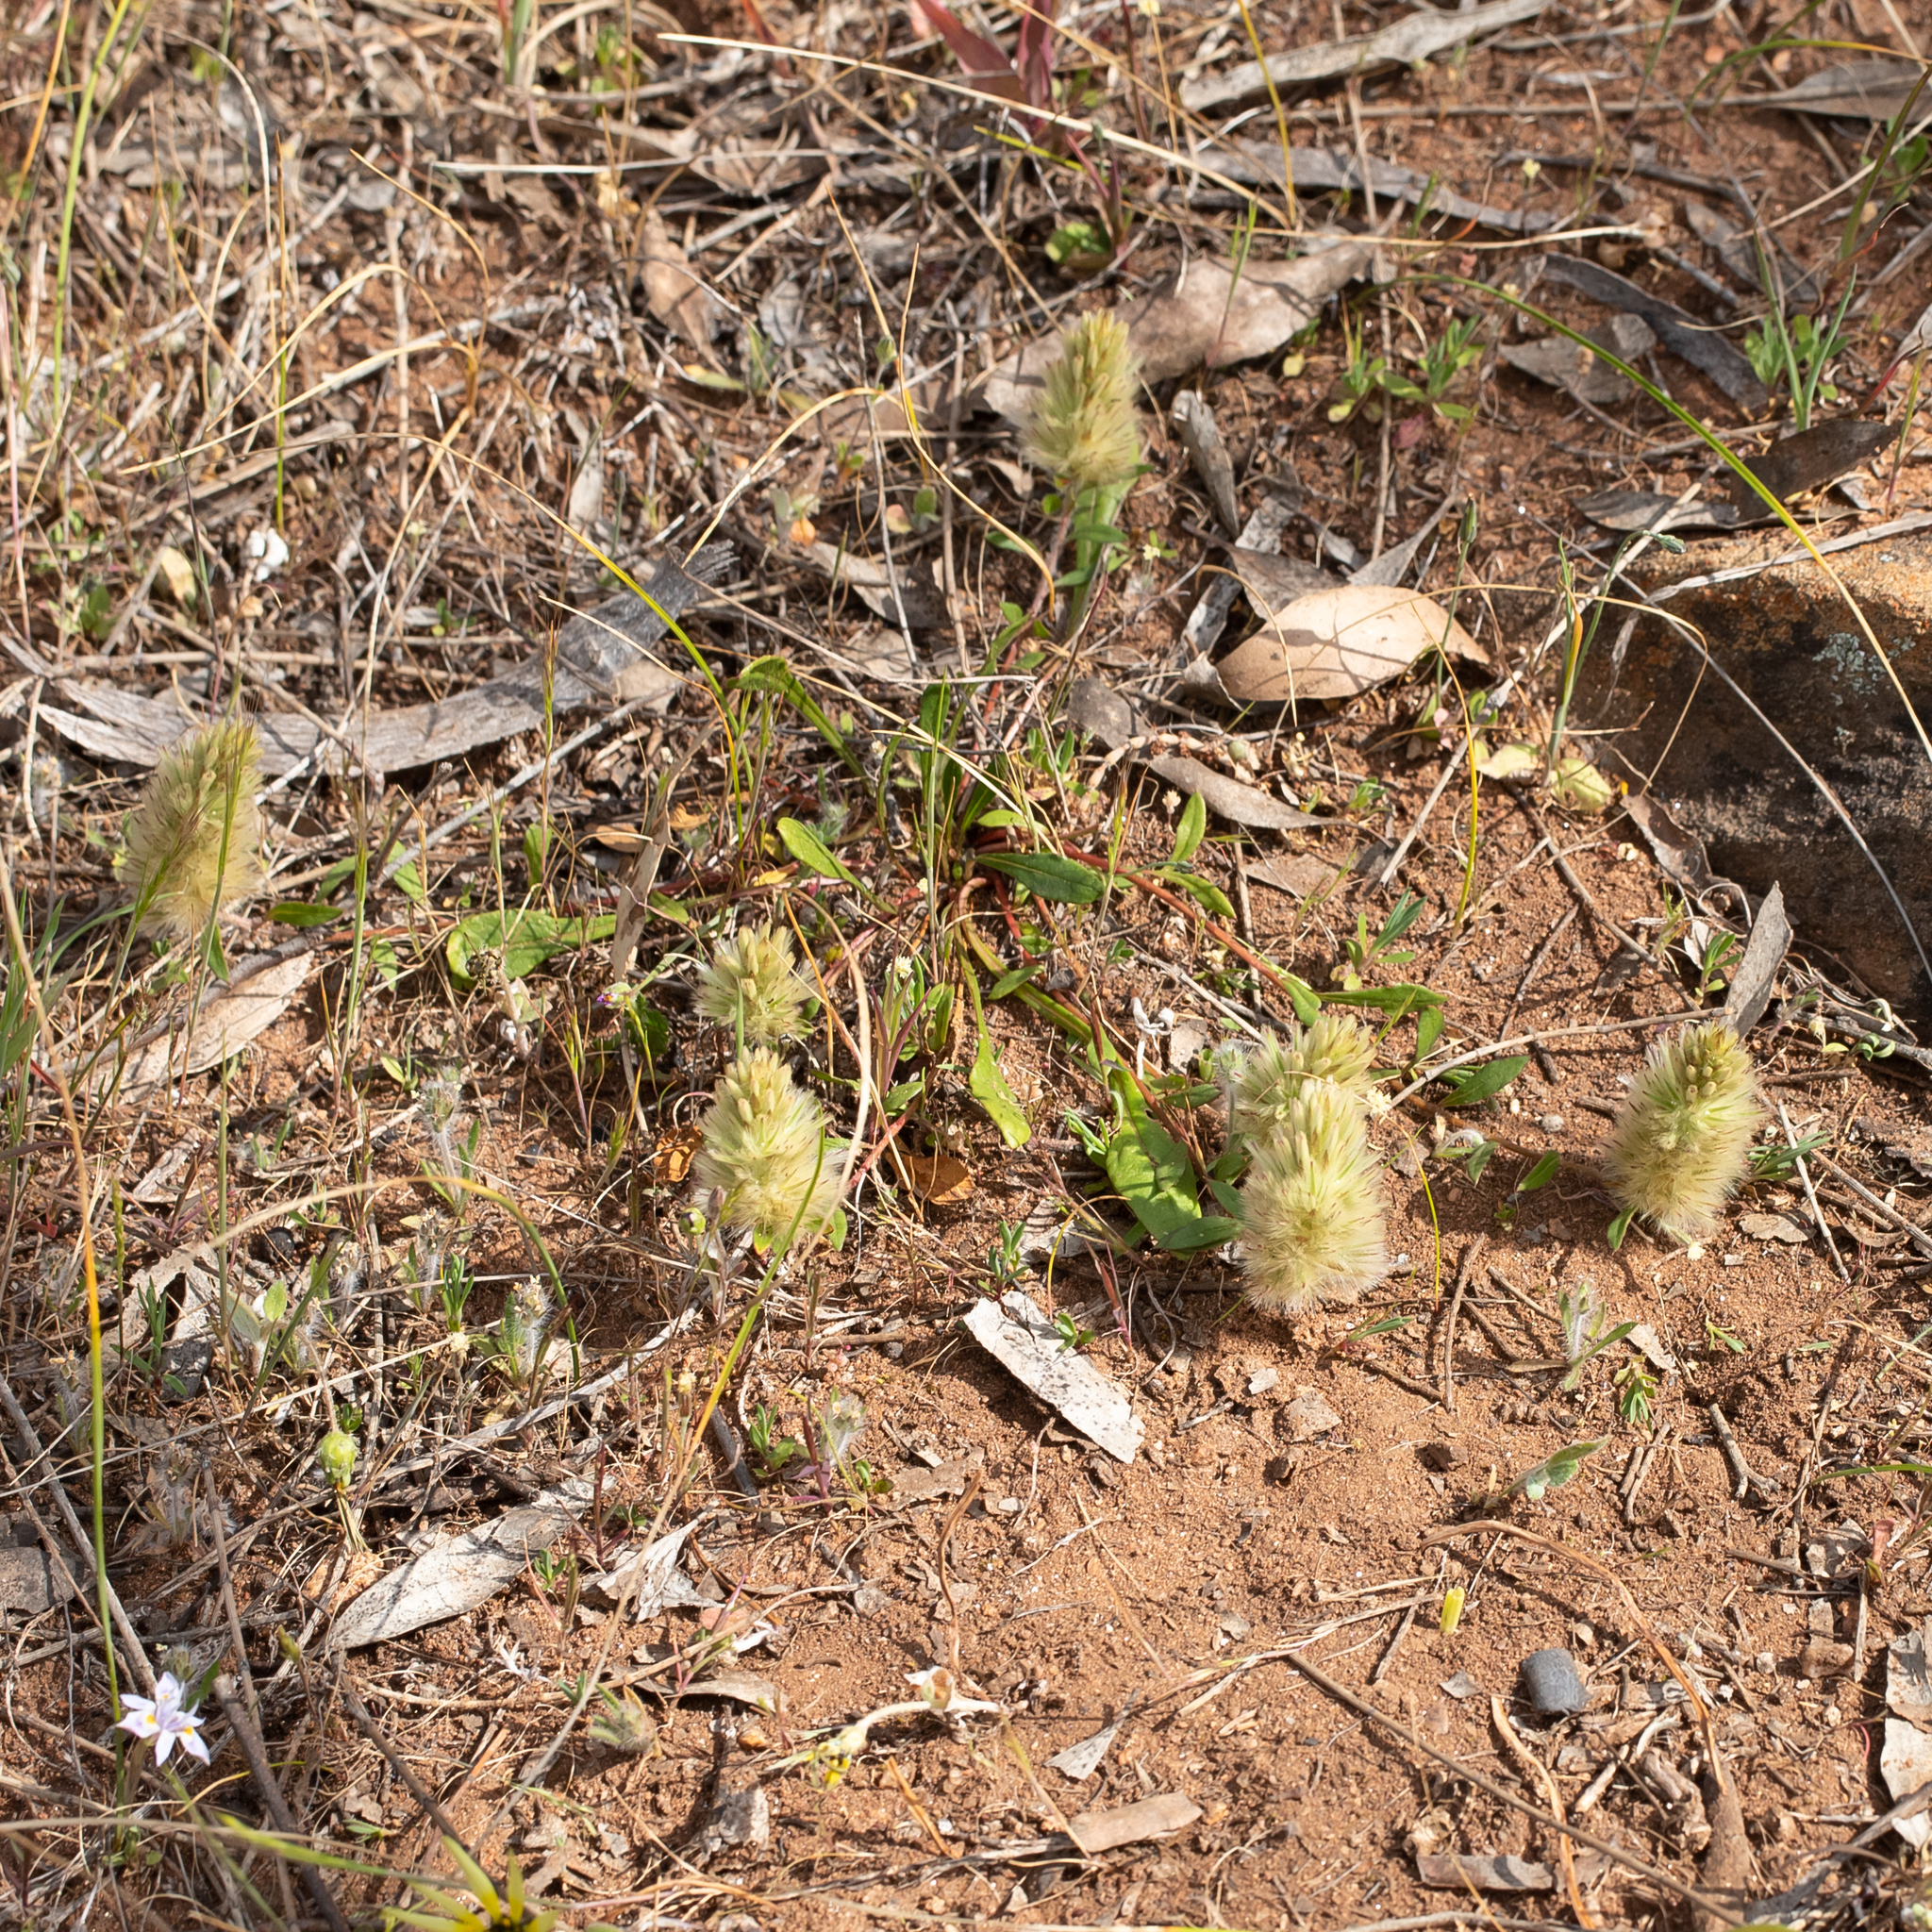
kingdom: Plantae
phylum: Tracheophyta
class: Magnoliopsida
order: Caryophyllales
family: Amaranthaceae
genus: Ptilotus
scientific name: Ptilotus spathulatus
